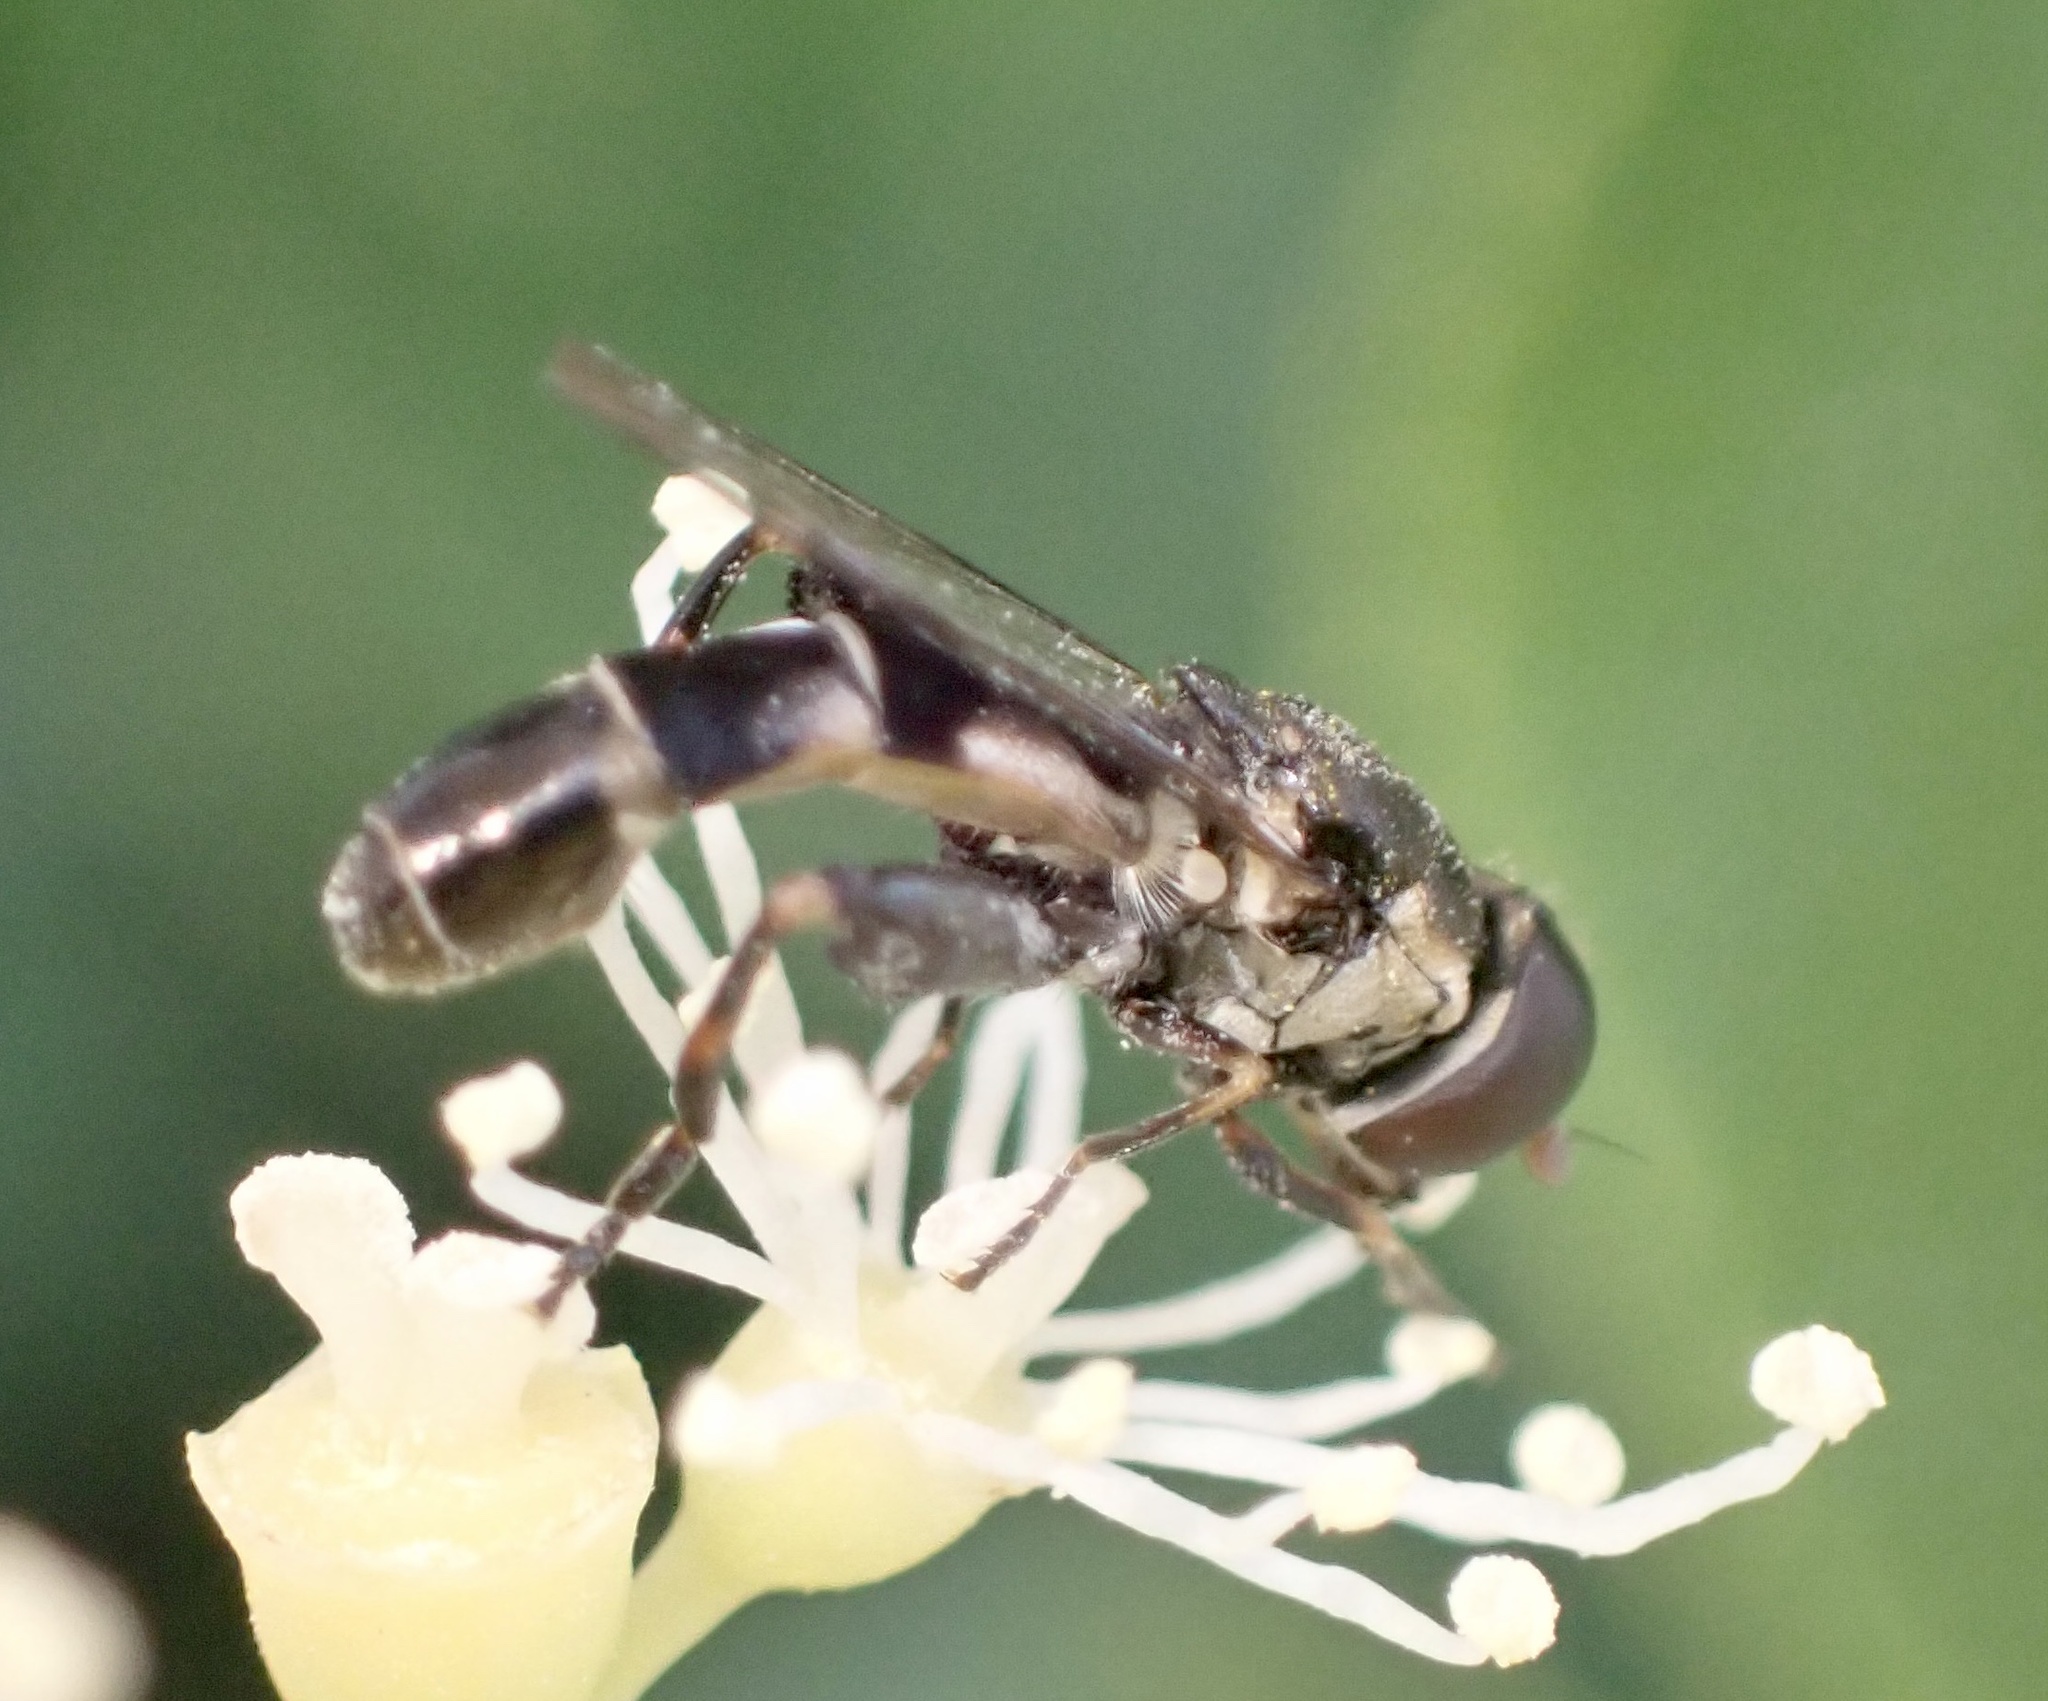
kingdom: Animalia
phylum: Arthropoda
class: Insecta
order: Diptera
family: Syrphidae
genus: Syritta
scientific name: Syritta pipiens
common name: Hover fly
